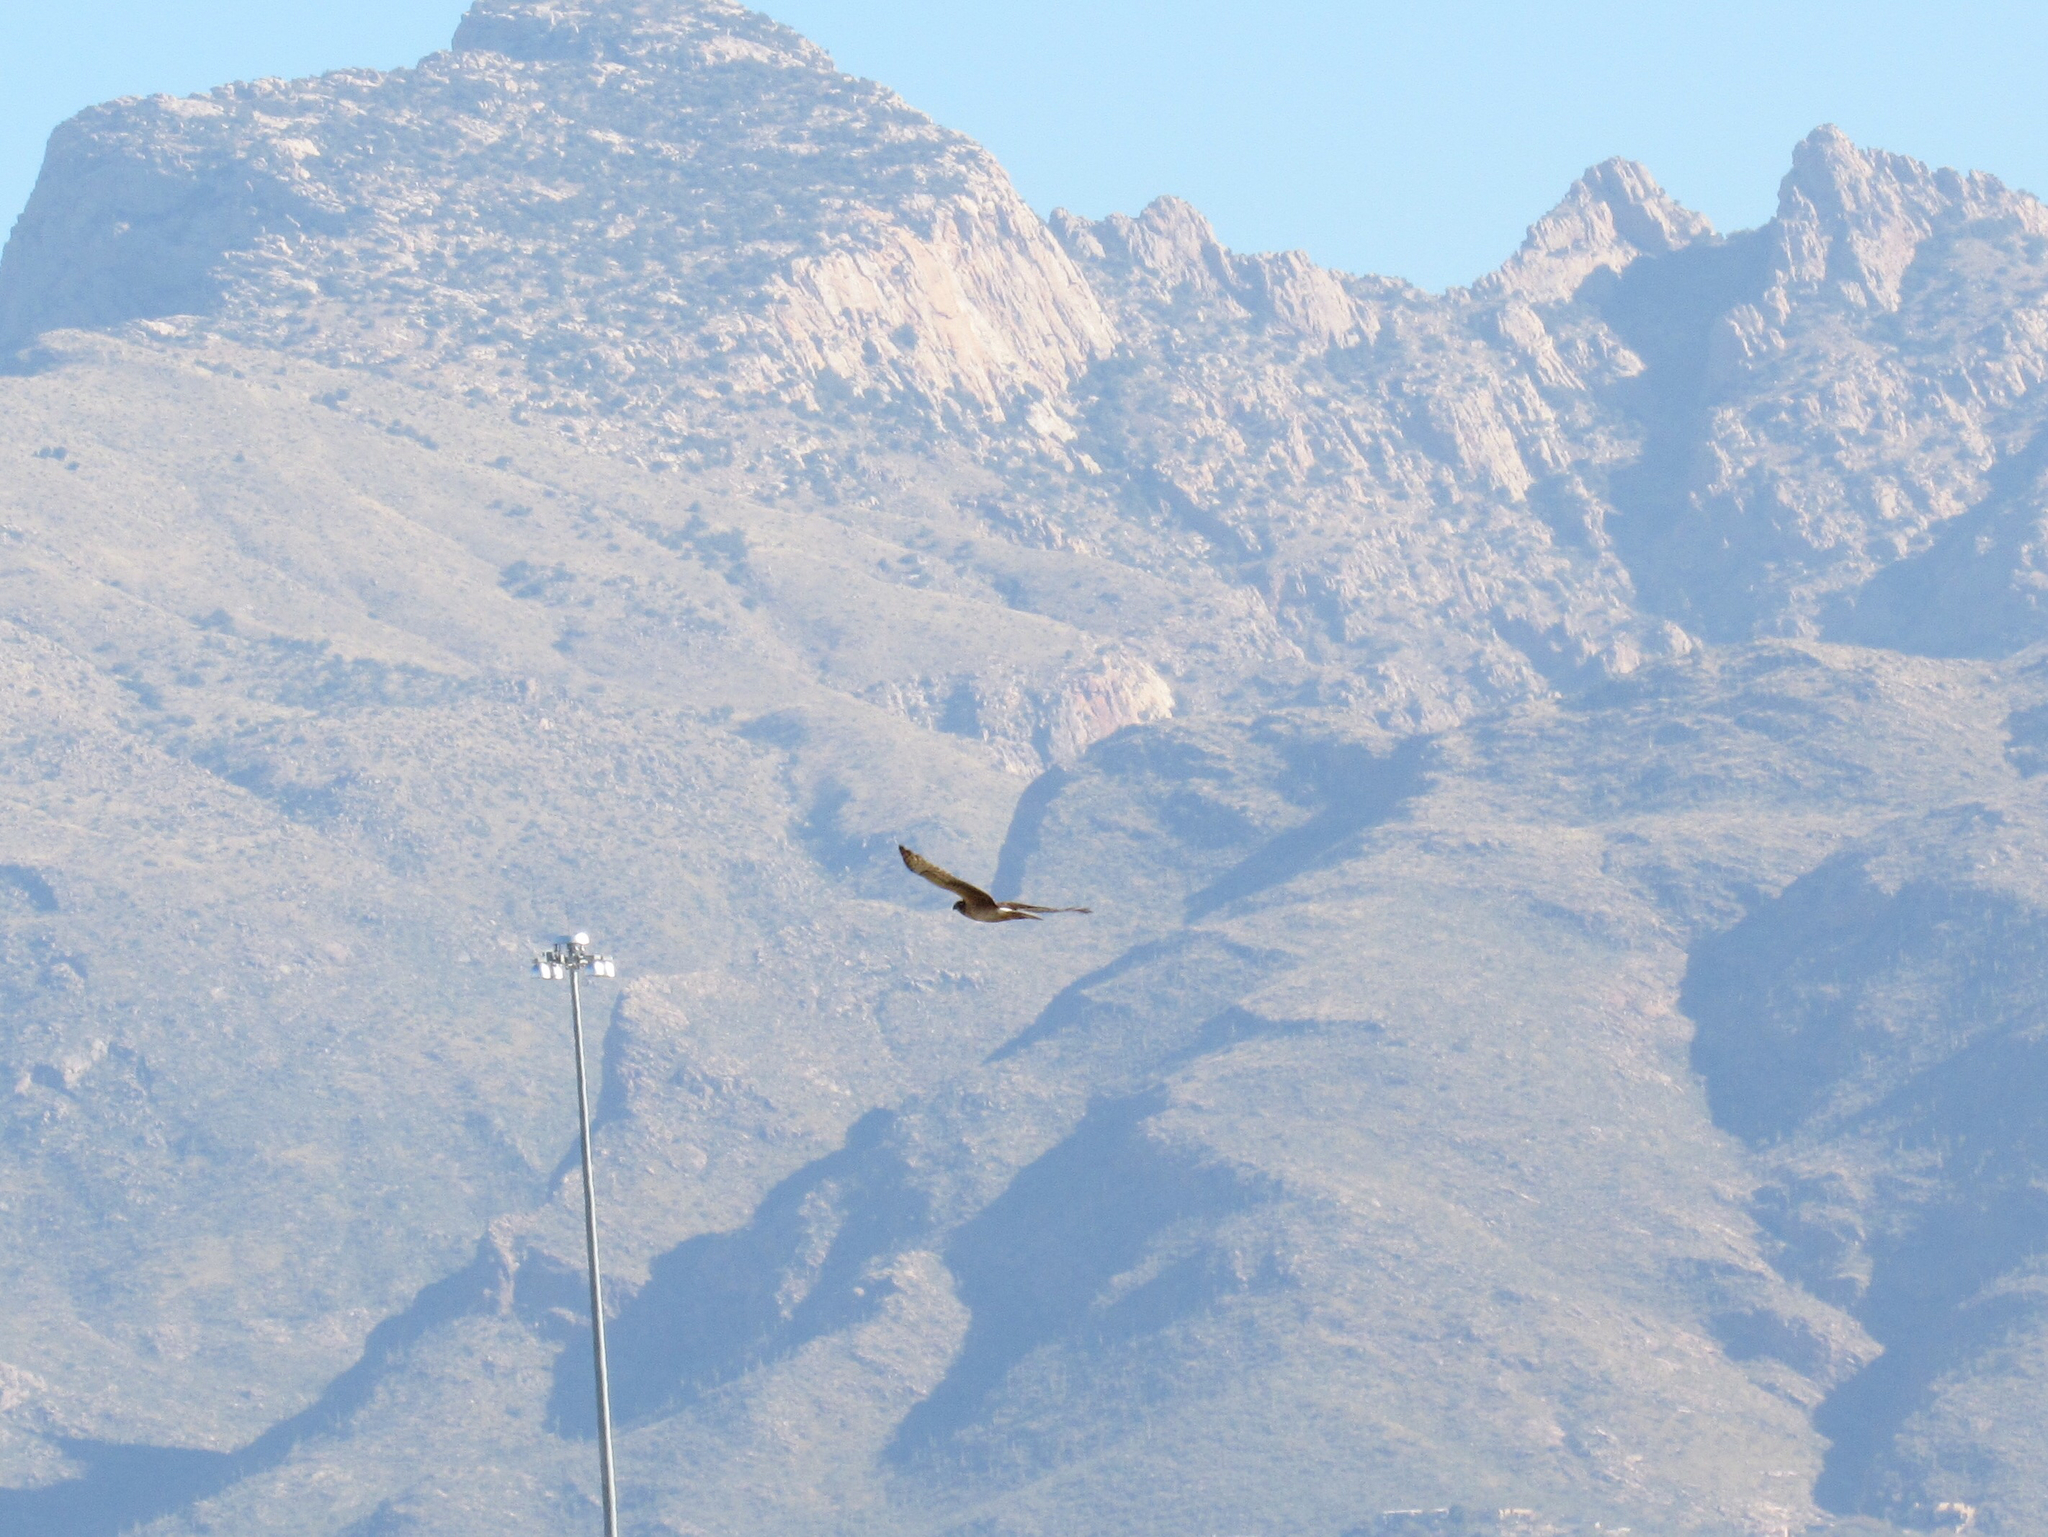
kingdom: Animalia
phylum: Chordata
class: Aves
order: Accipitriformes
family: Accipitridae
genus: Buteo
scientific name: Buteo jamaicensis
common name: Red-tailed hawk
